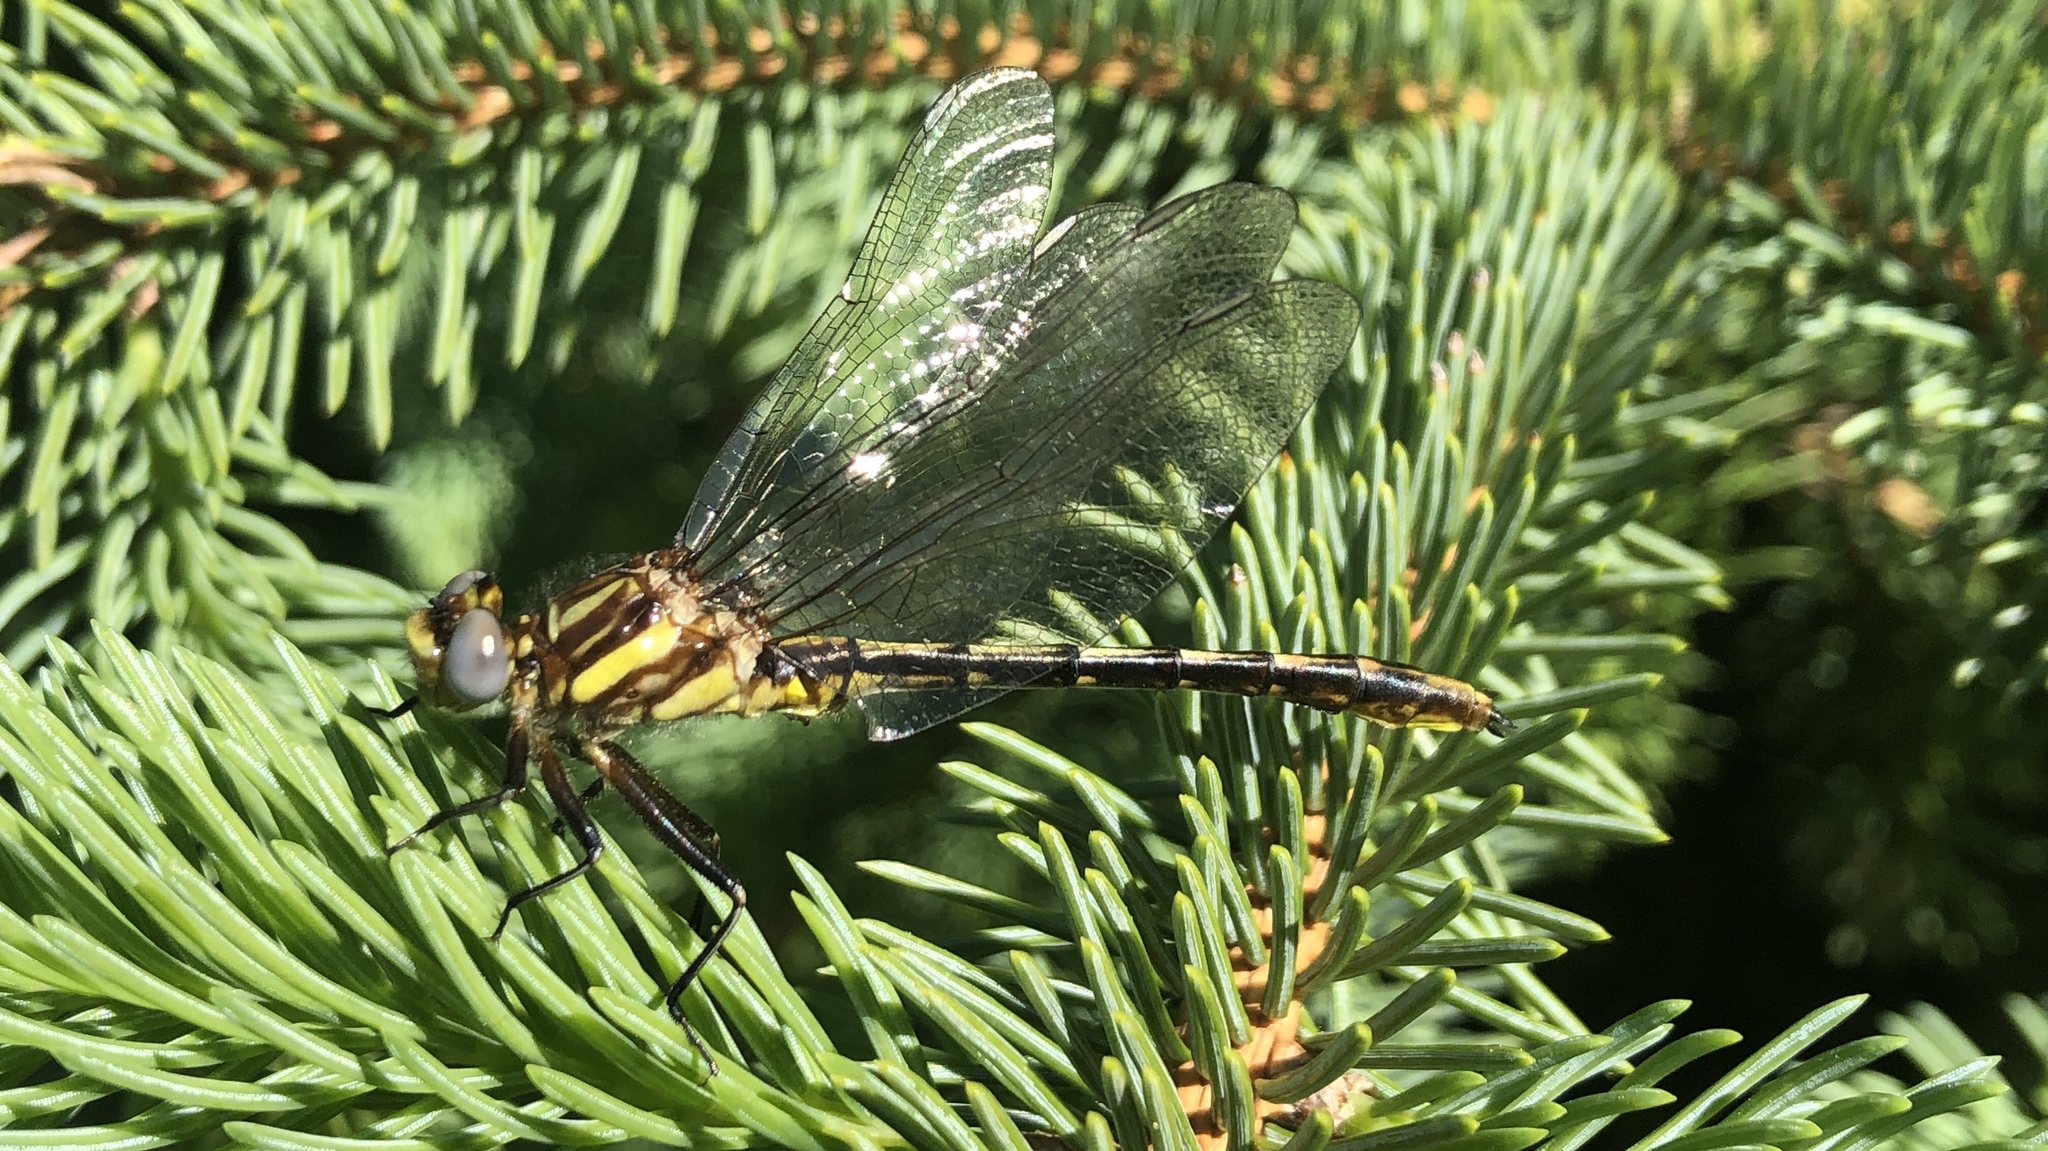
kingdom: Animalia
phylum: Arthropoda
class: Insecta
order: Odonata
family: Gomphidae
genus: Phanogomphus
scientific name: Phanogomphus exilis
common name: Lancet clubtail
